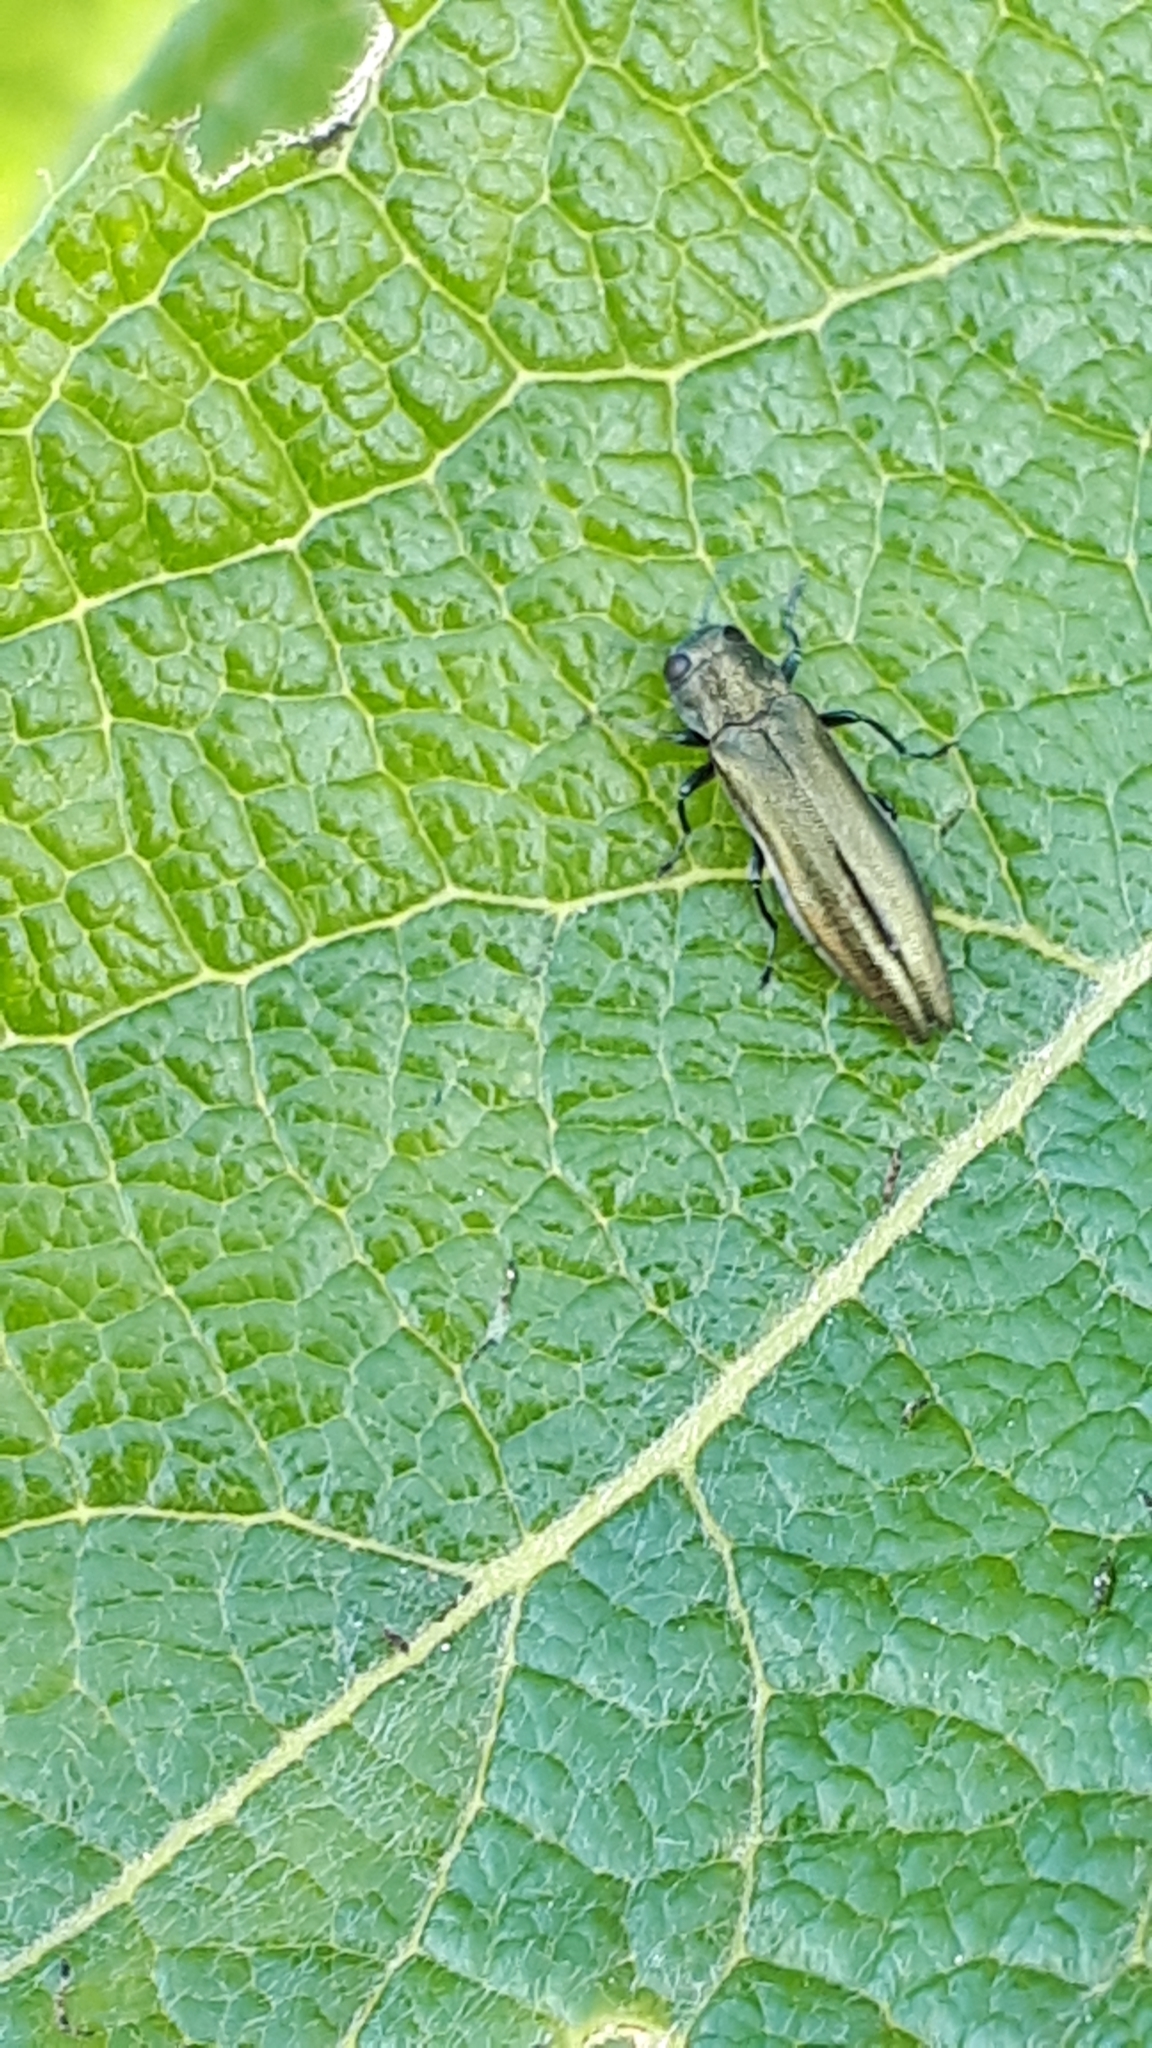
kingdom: Animalia
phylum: Arthropoda
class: Insecta
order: Coleoptera
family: Buprestidae
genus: Agrilus
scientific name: Agrilus viridis
